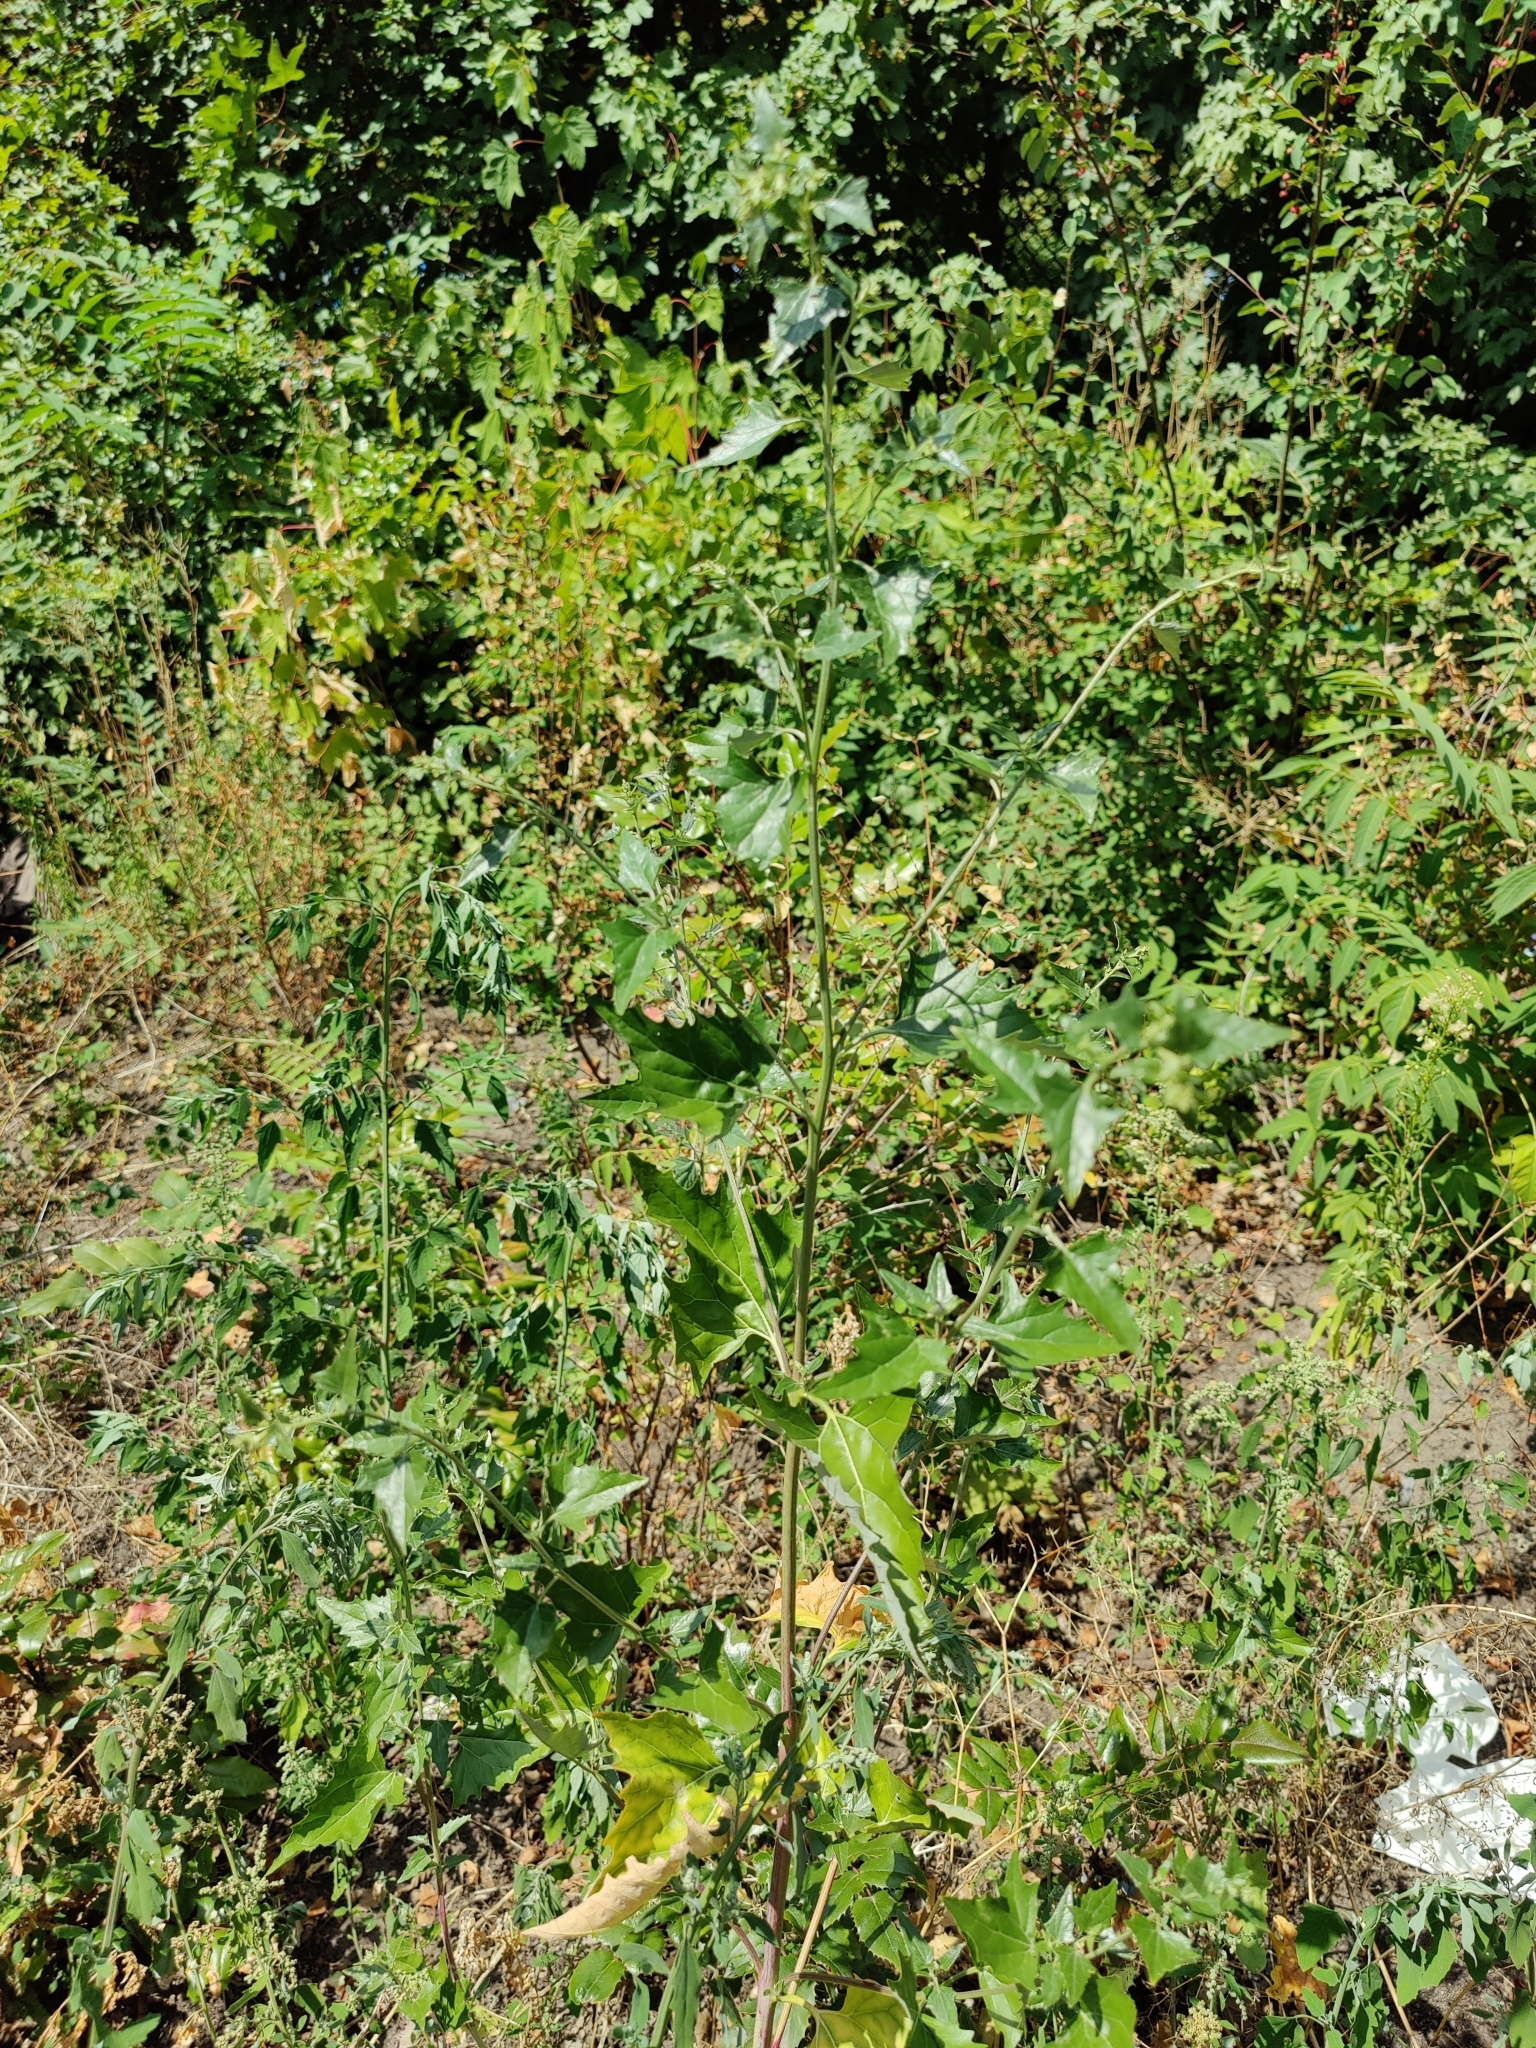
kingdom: Plantae
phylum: Tracheophyta
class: Magnoliopsida
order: Caryophyllales
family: Amaranthaceae
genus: Atriplex
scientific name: Atriplex sagittata
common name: Purple orache
